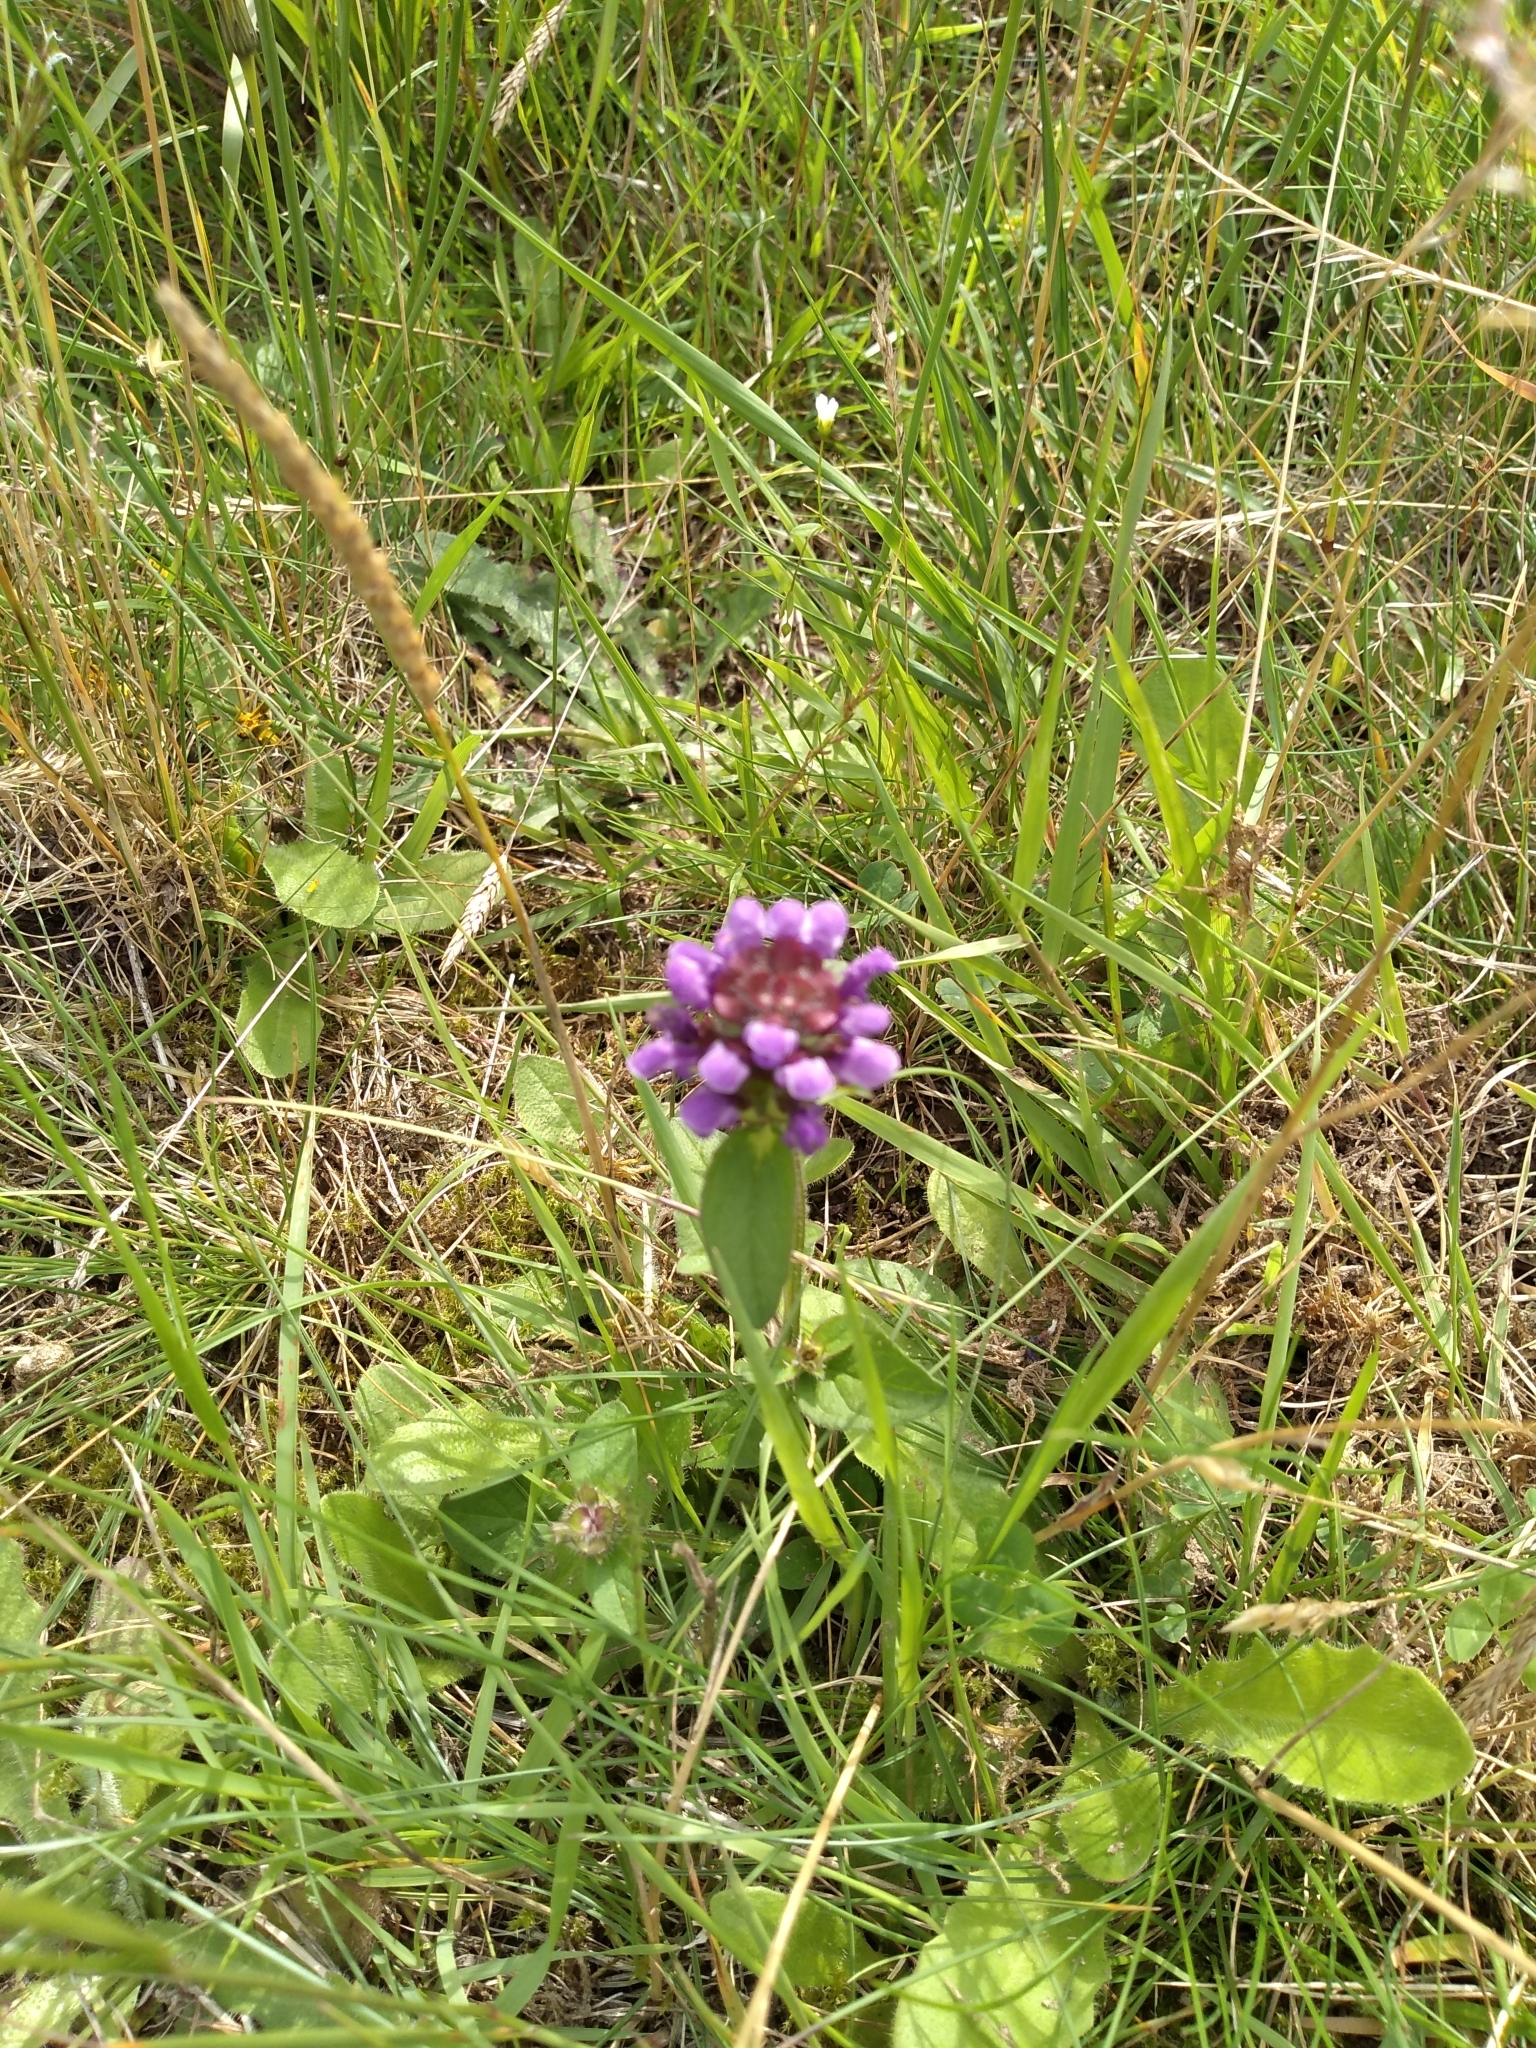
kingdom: Plantae
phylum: Tracheophyta
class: Magnoliopsida
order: Lamiales
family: Lamiaceae
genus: Prunella
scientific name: Prunella vulgaris
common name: Heal-all
